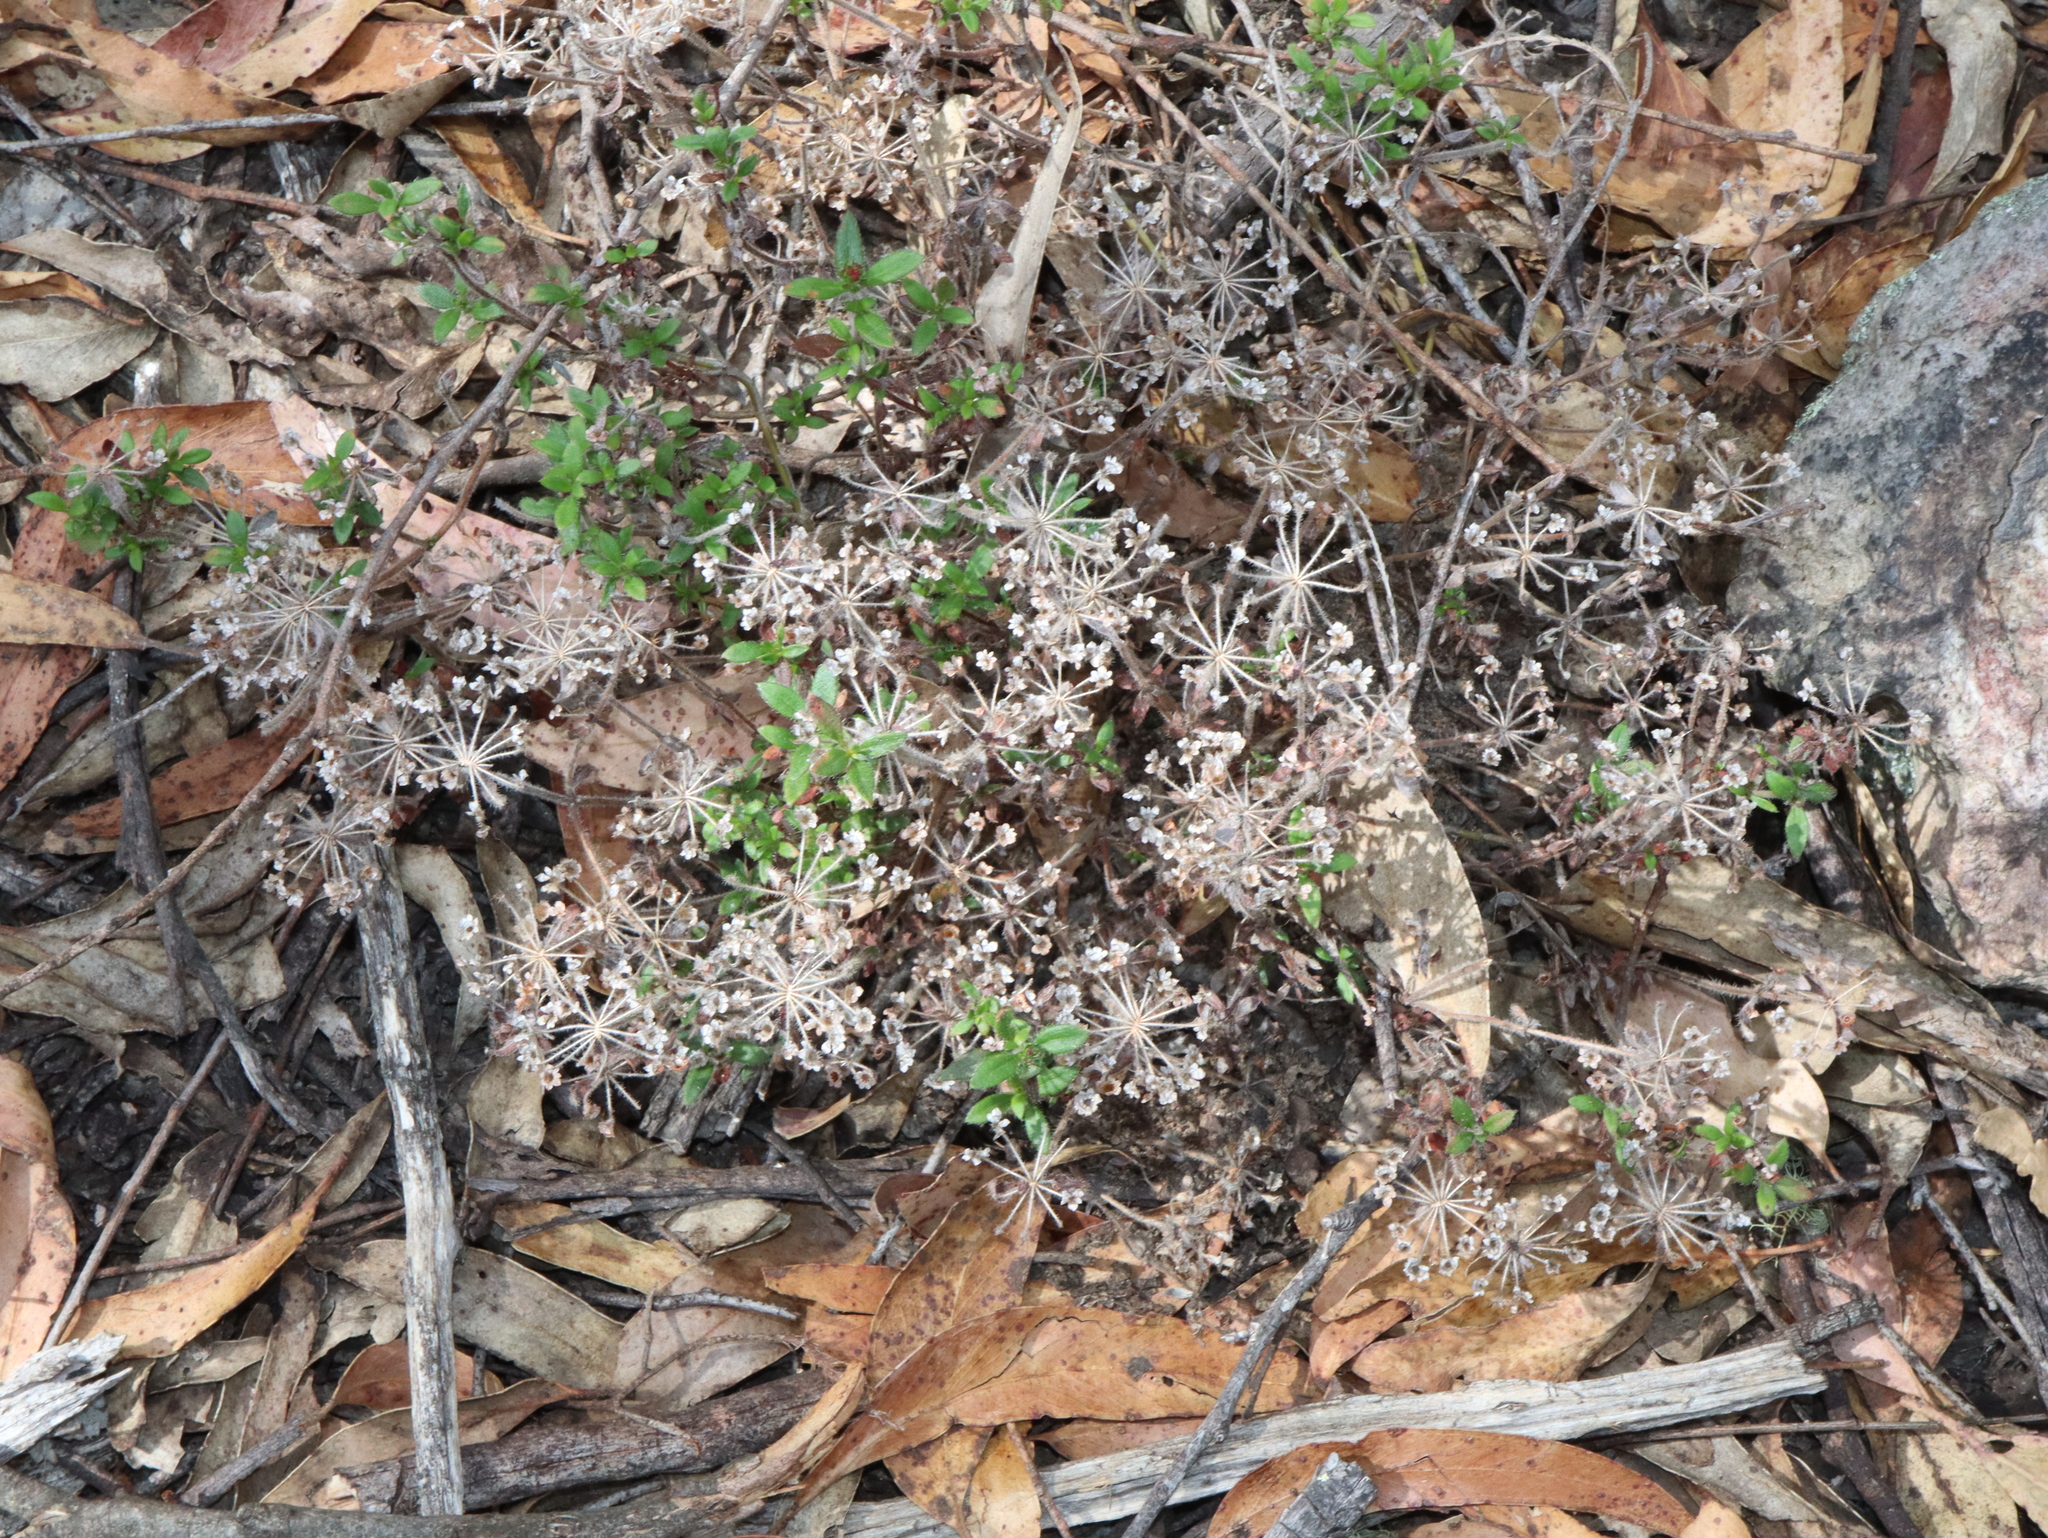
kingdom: Plantae
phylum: Tracheophyta
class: Magnoliopsida
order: Gentianales
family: Rubiaceae
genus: Pomax
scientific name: Pomax umbellata
